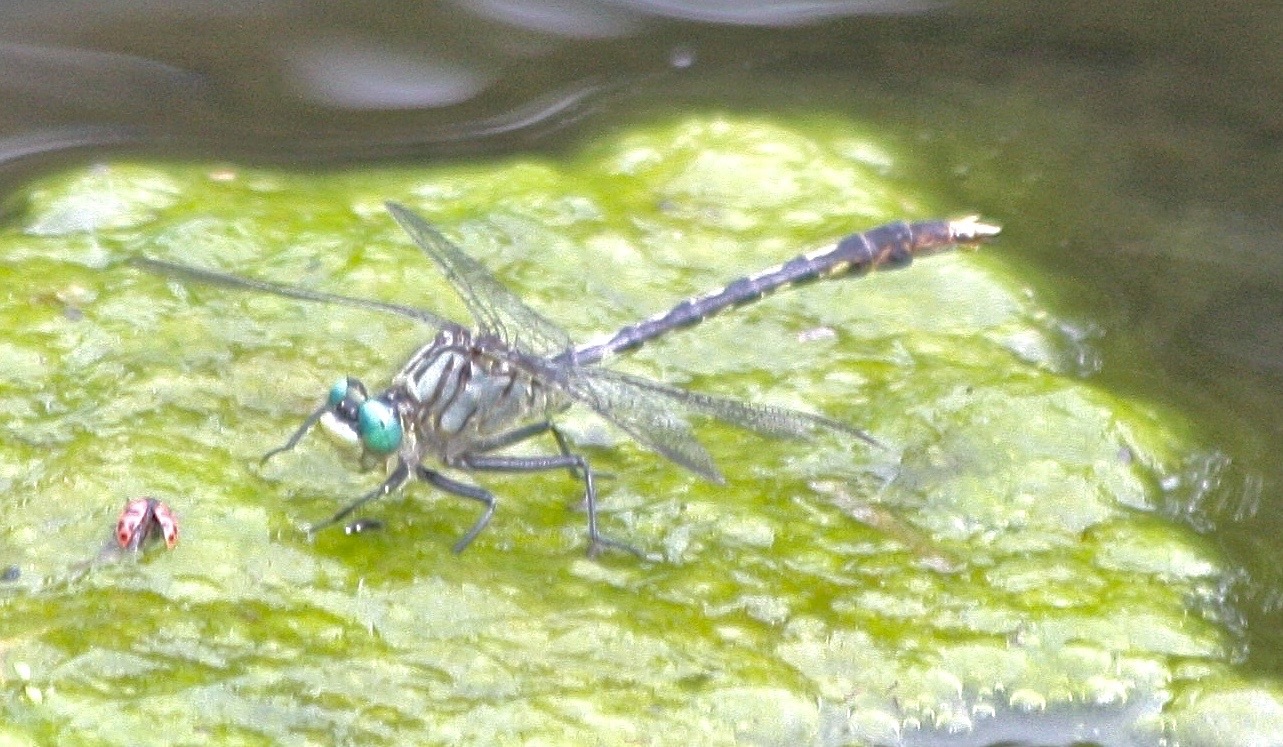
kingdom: Animalia
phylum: Arthropoda
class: Insecta
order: Odonata
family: Gomphidae
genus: Arigomphus
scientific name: Arigomphus villosipes
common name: Unicorn clubtail
